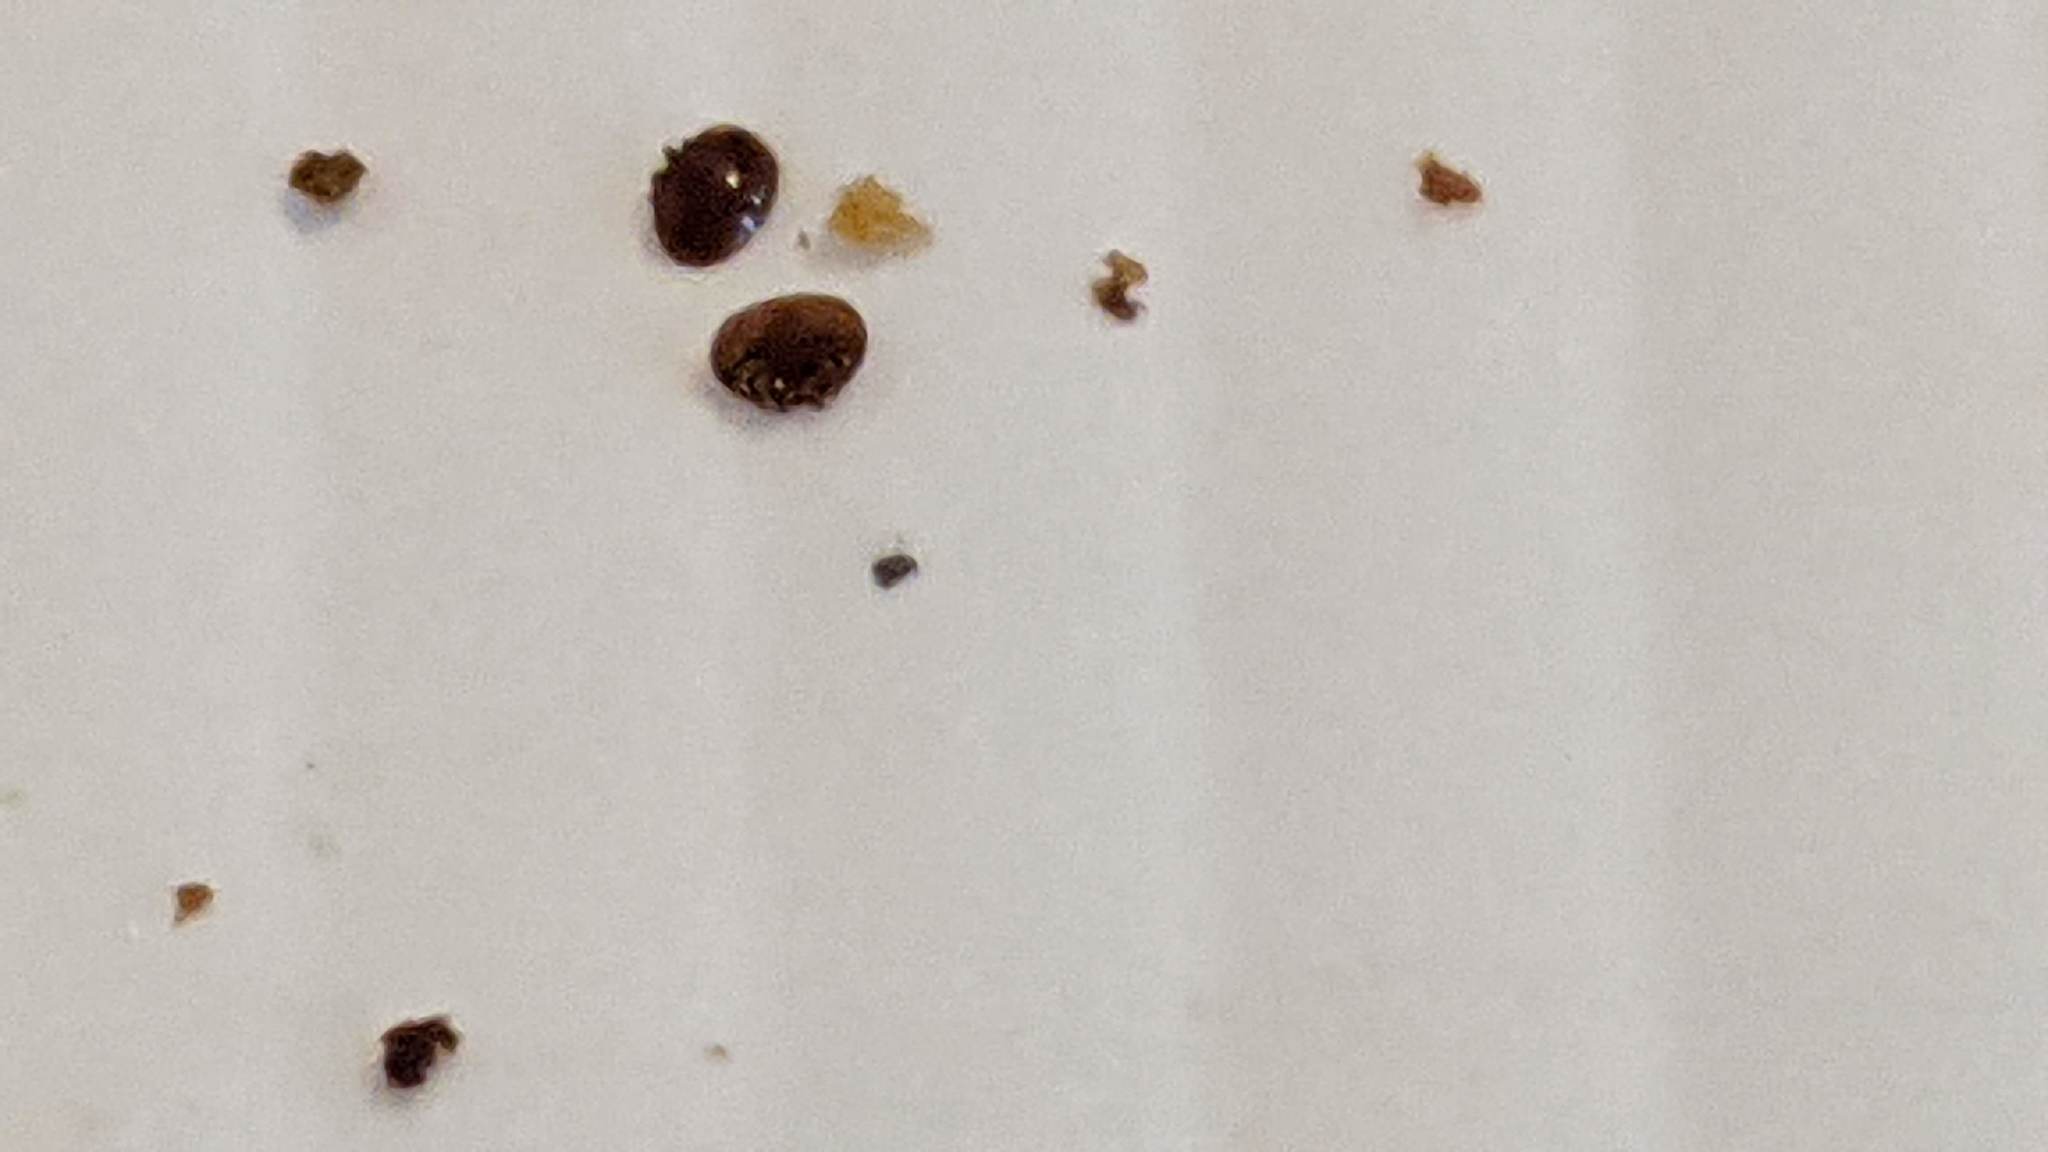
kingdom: Animalia
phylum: Arthropoda
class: Arachnida
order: Mesostigmata
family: Varroidae
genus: Varroa
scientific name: Varroa destructor
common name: Honey bee mite
